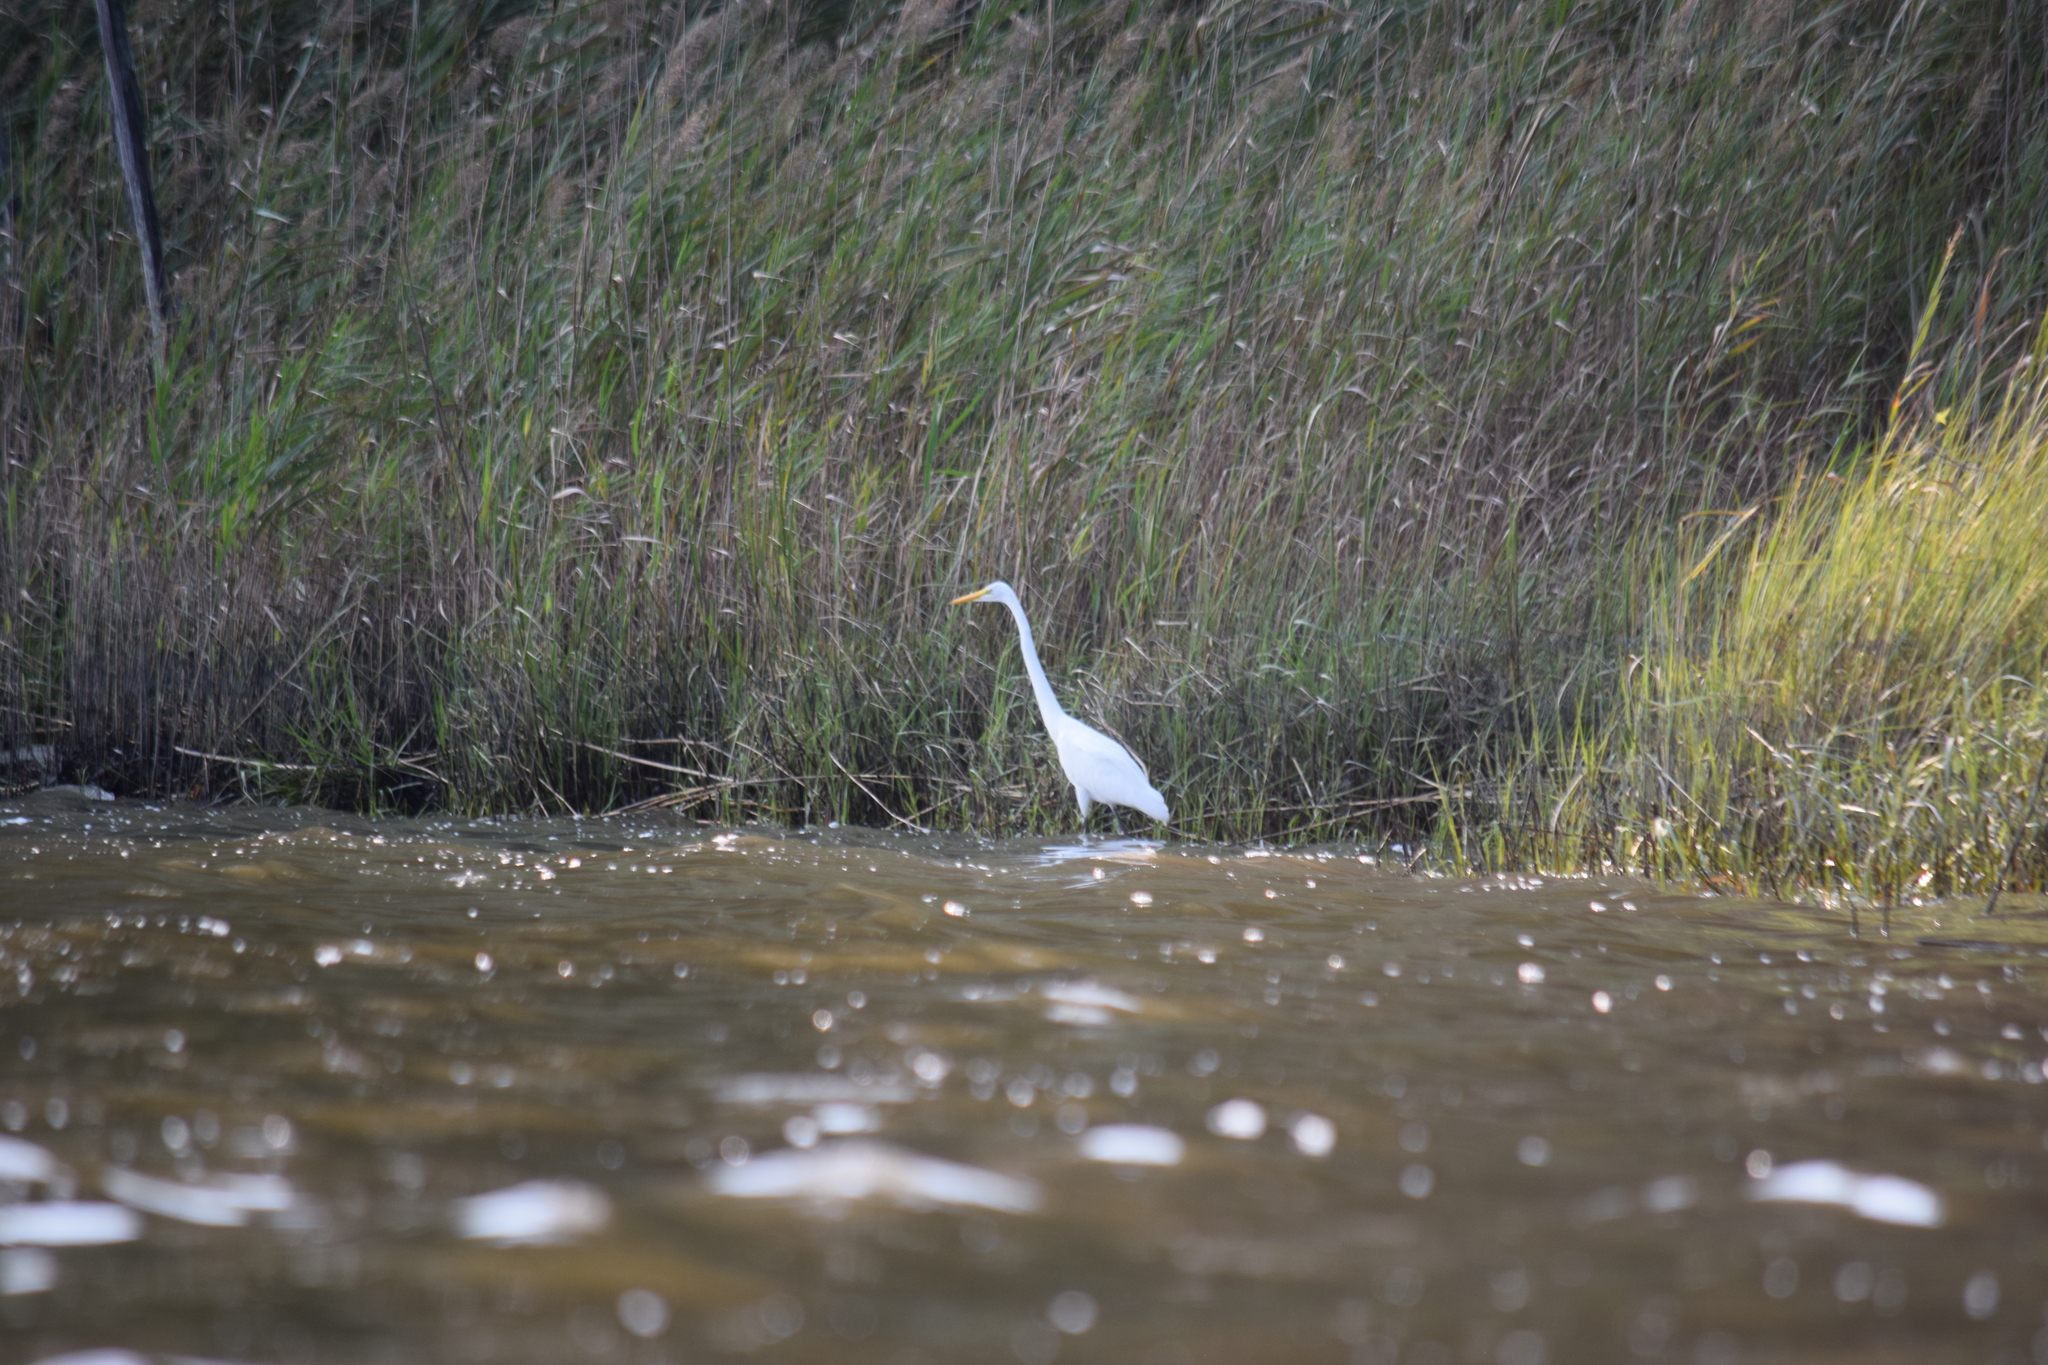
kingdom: Animalia
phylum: Chordata
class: Aves
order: Pelecaniformes
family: Ardeidae
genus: Ardea
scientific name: Ardea alba
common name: Great egret
